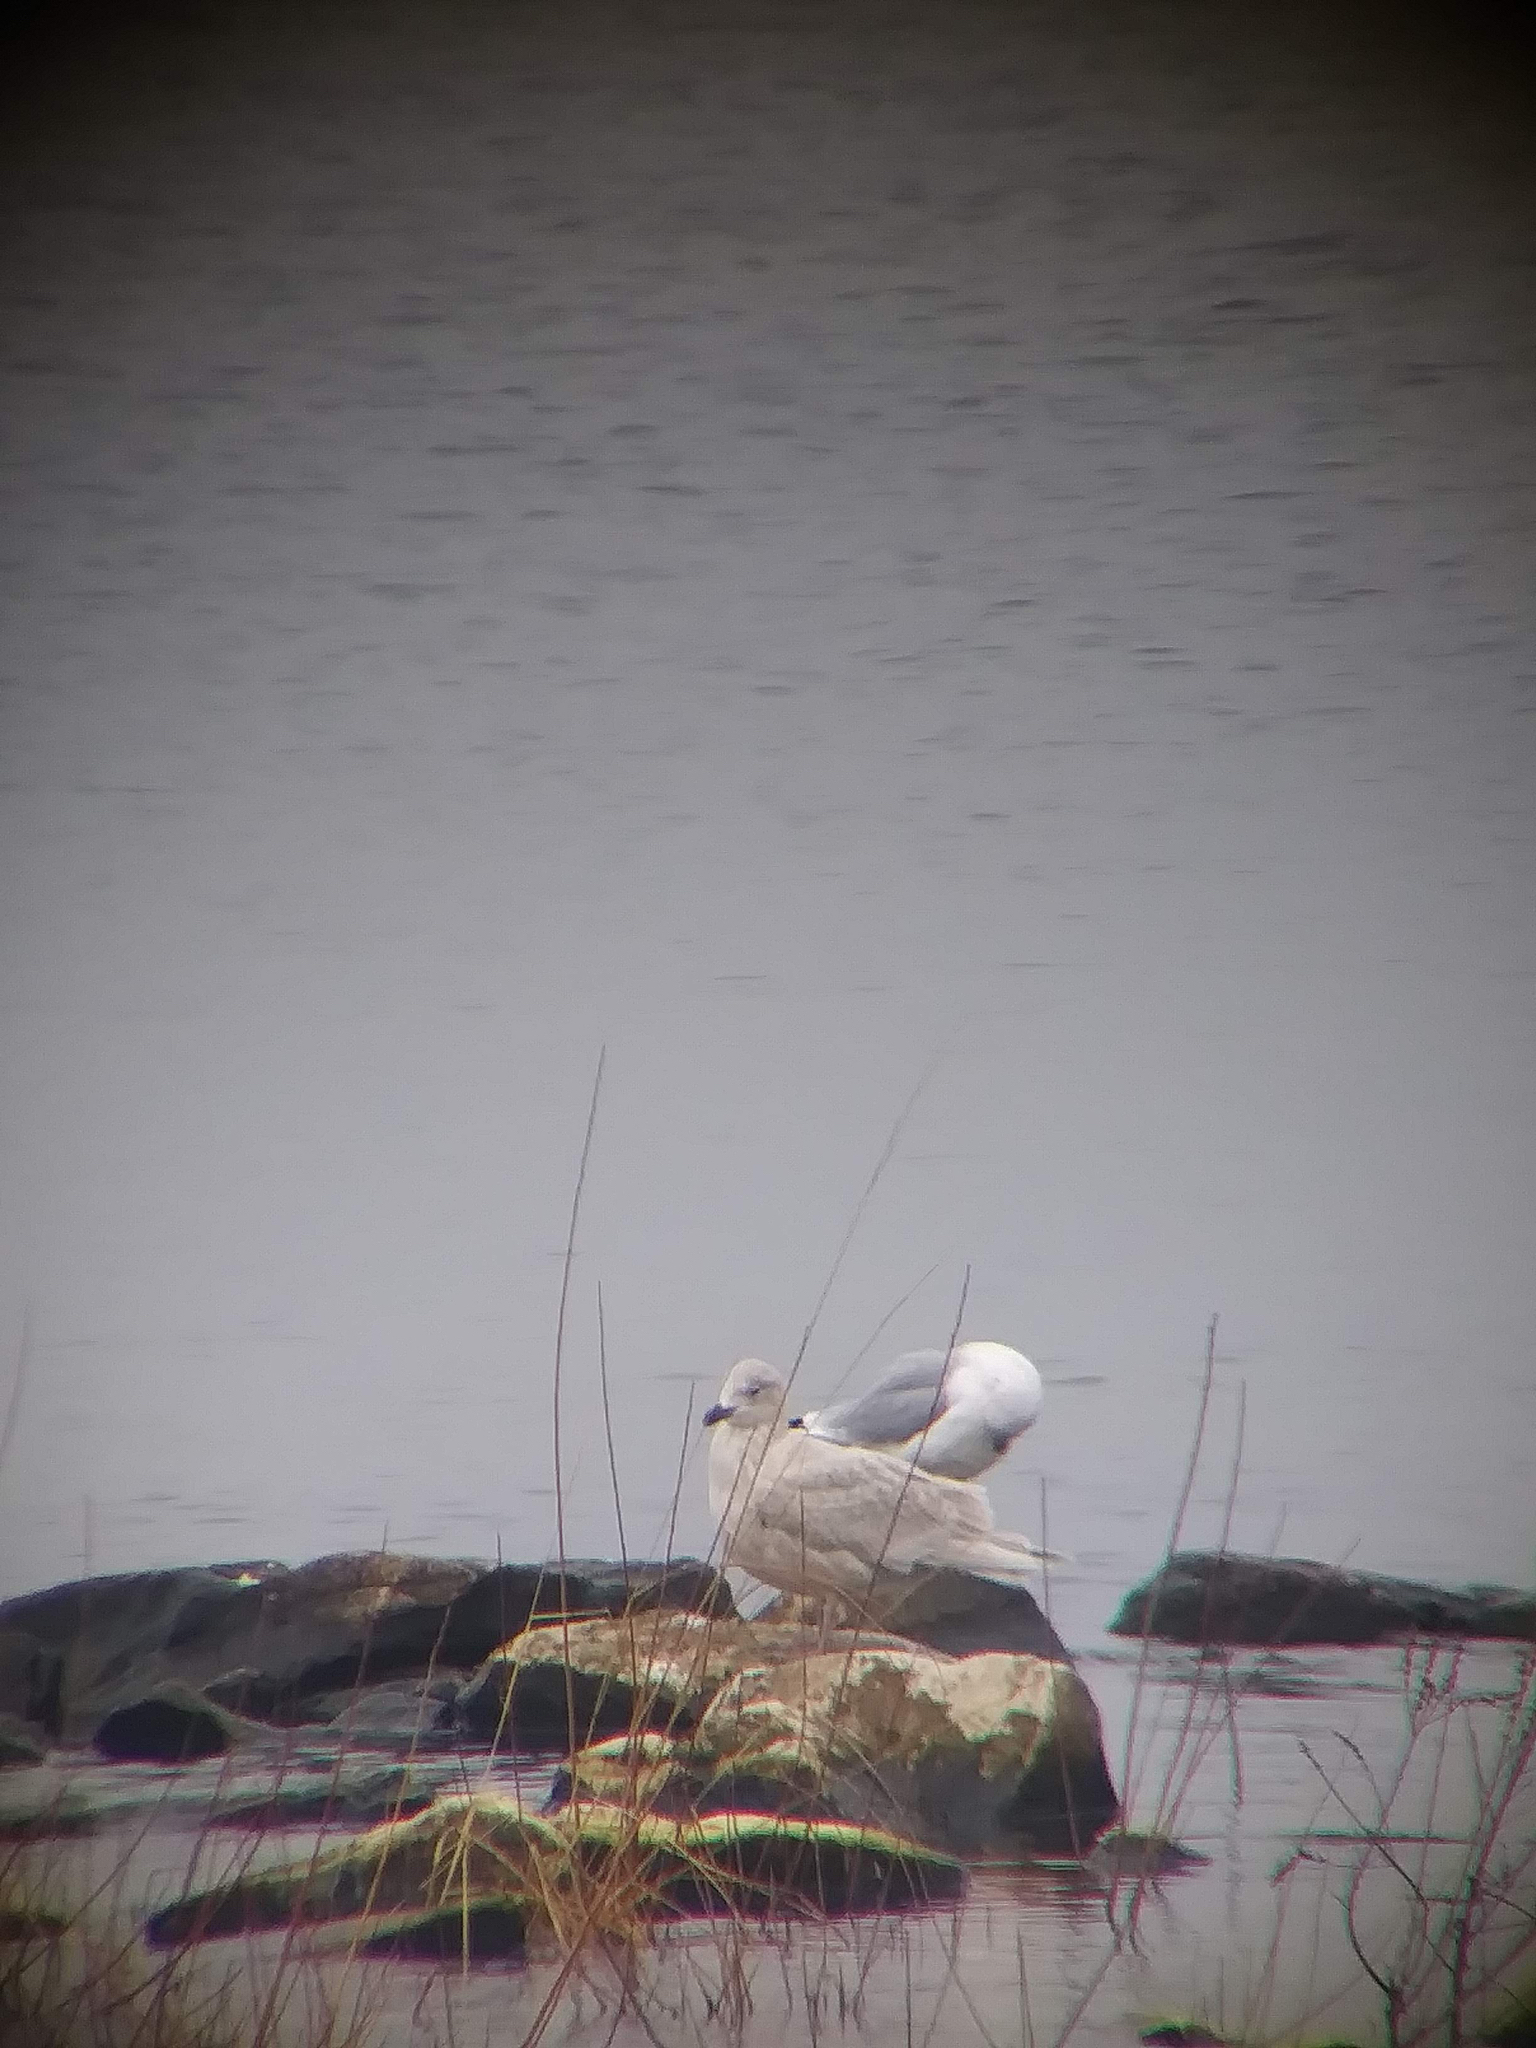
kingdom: Animalia
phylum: Chordata
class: Aves
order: Charadriiformes
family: Laridae
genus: Larus
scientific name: Larus glaucoides
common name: Iceland gull
